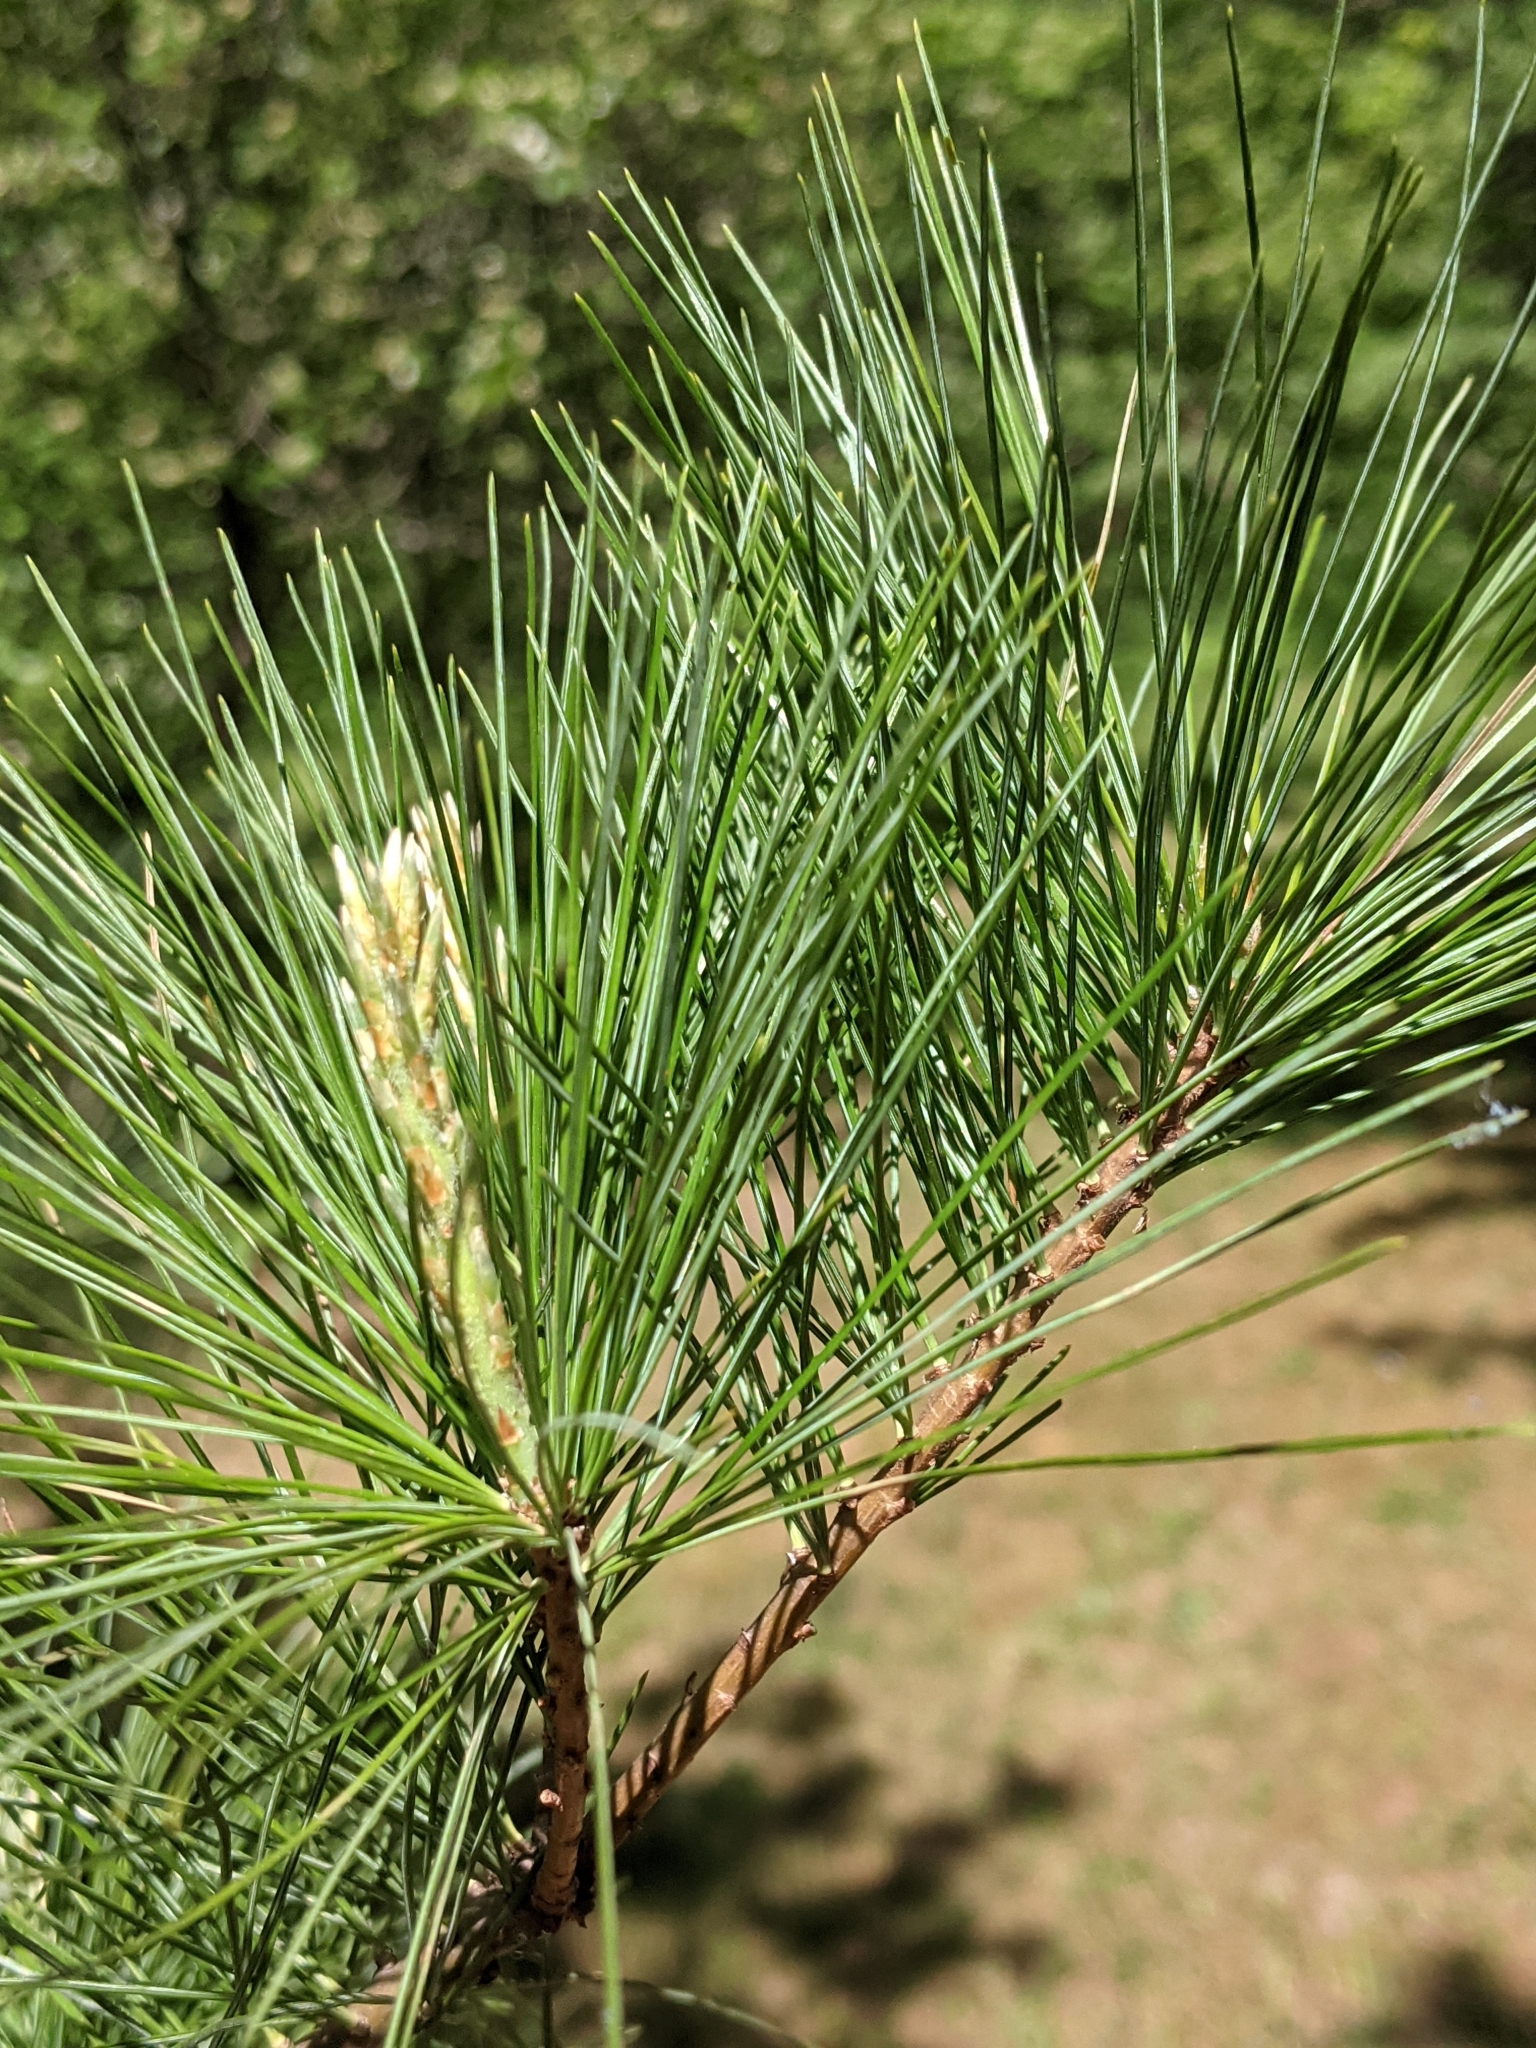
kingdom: Plantae
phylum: Tracheophyta
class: Pinopsida
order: Pinales
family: Pinaceae
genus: Pinus
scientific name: Pinus strobus
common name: Weymouth pine
